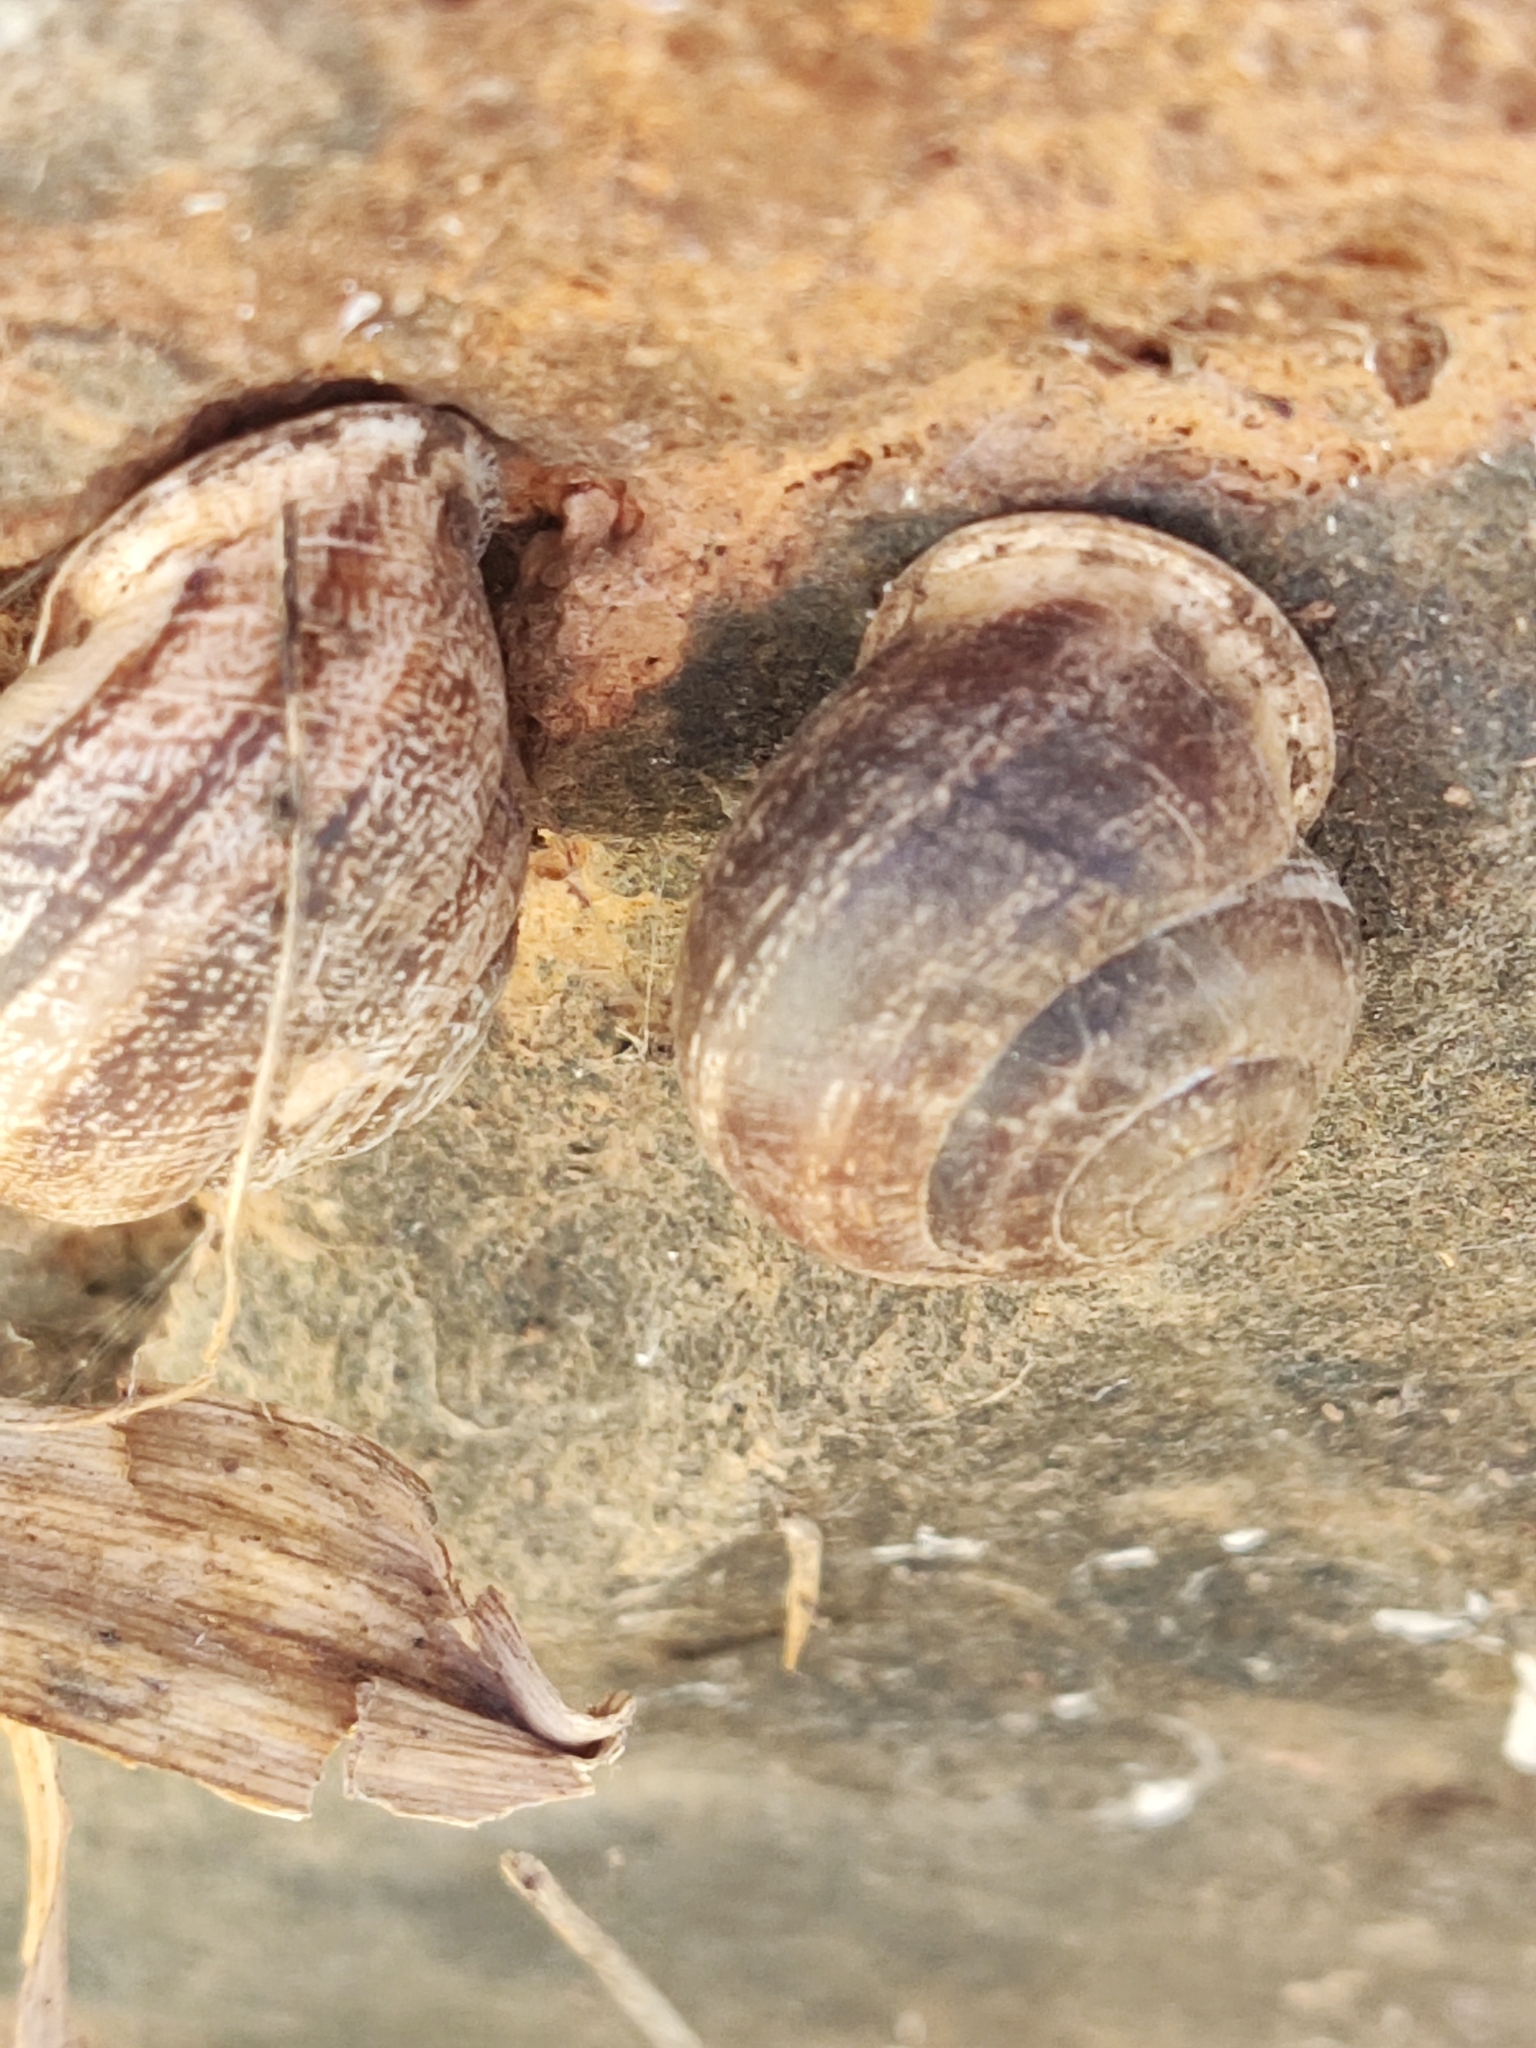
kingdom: Animalia
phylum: Mollusca
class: Gastropoda
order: Stylommatophora
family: Helicidae
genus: Eobania
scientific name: Eobania vermiculata
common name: Chocolateband snail
